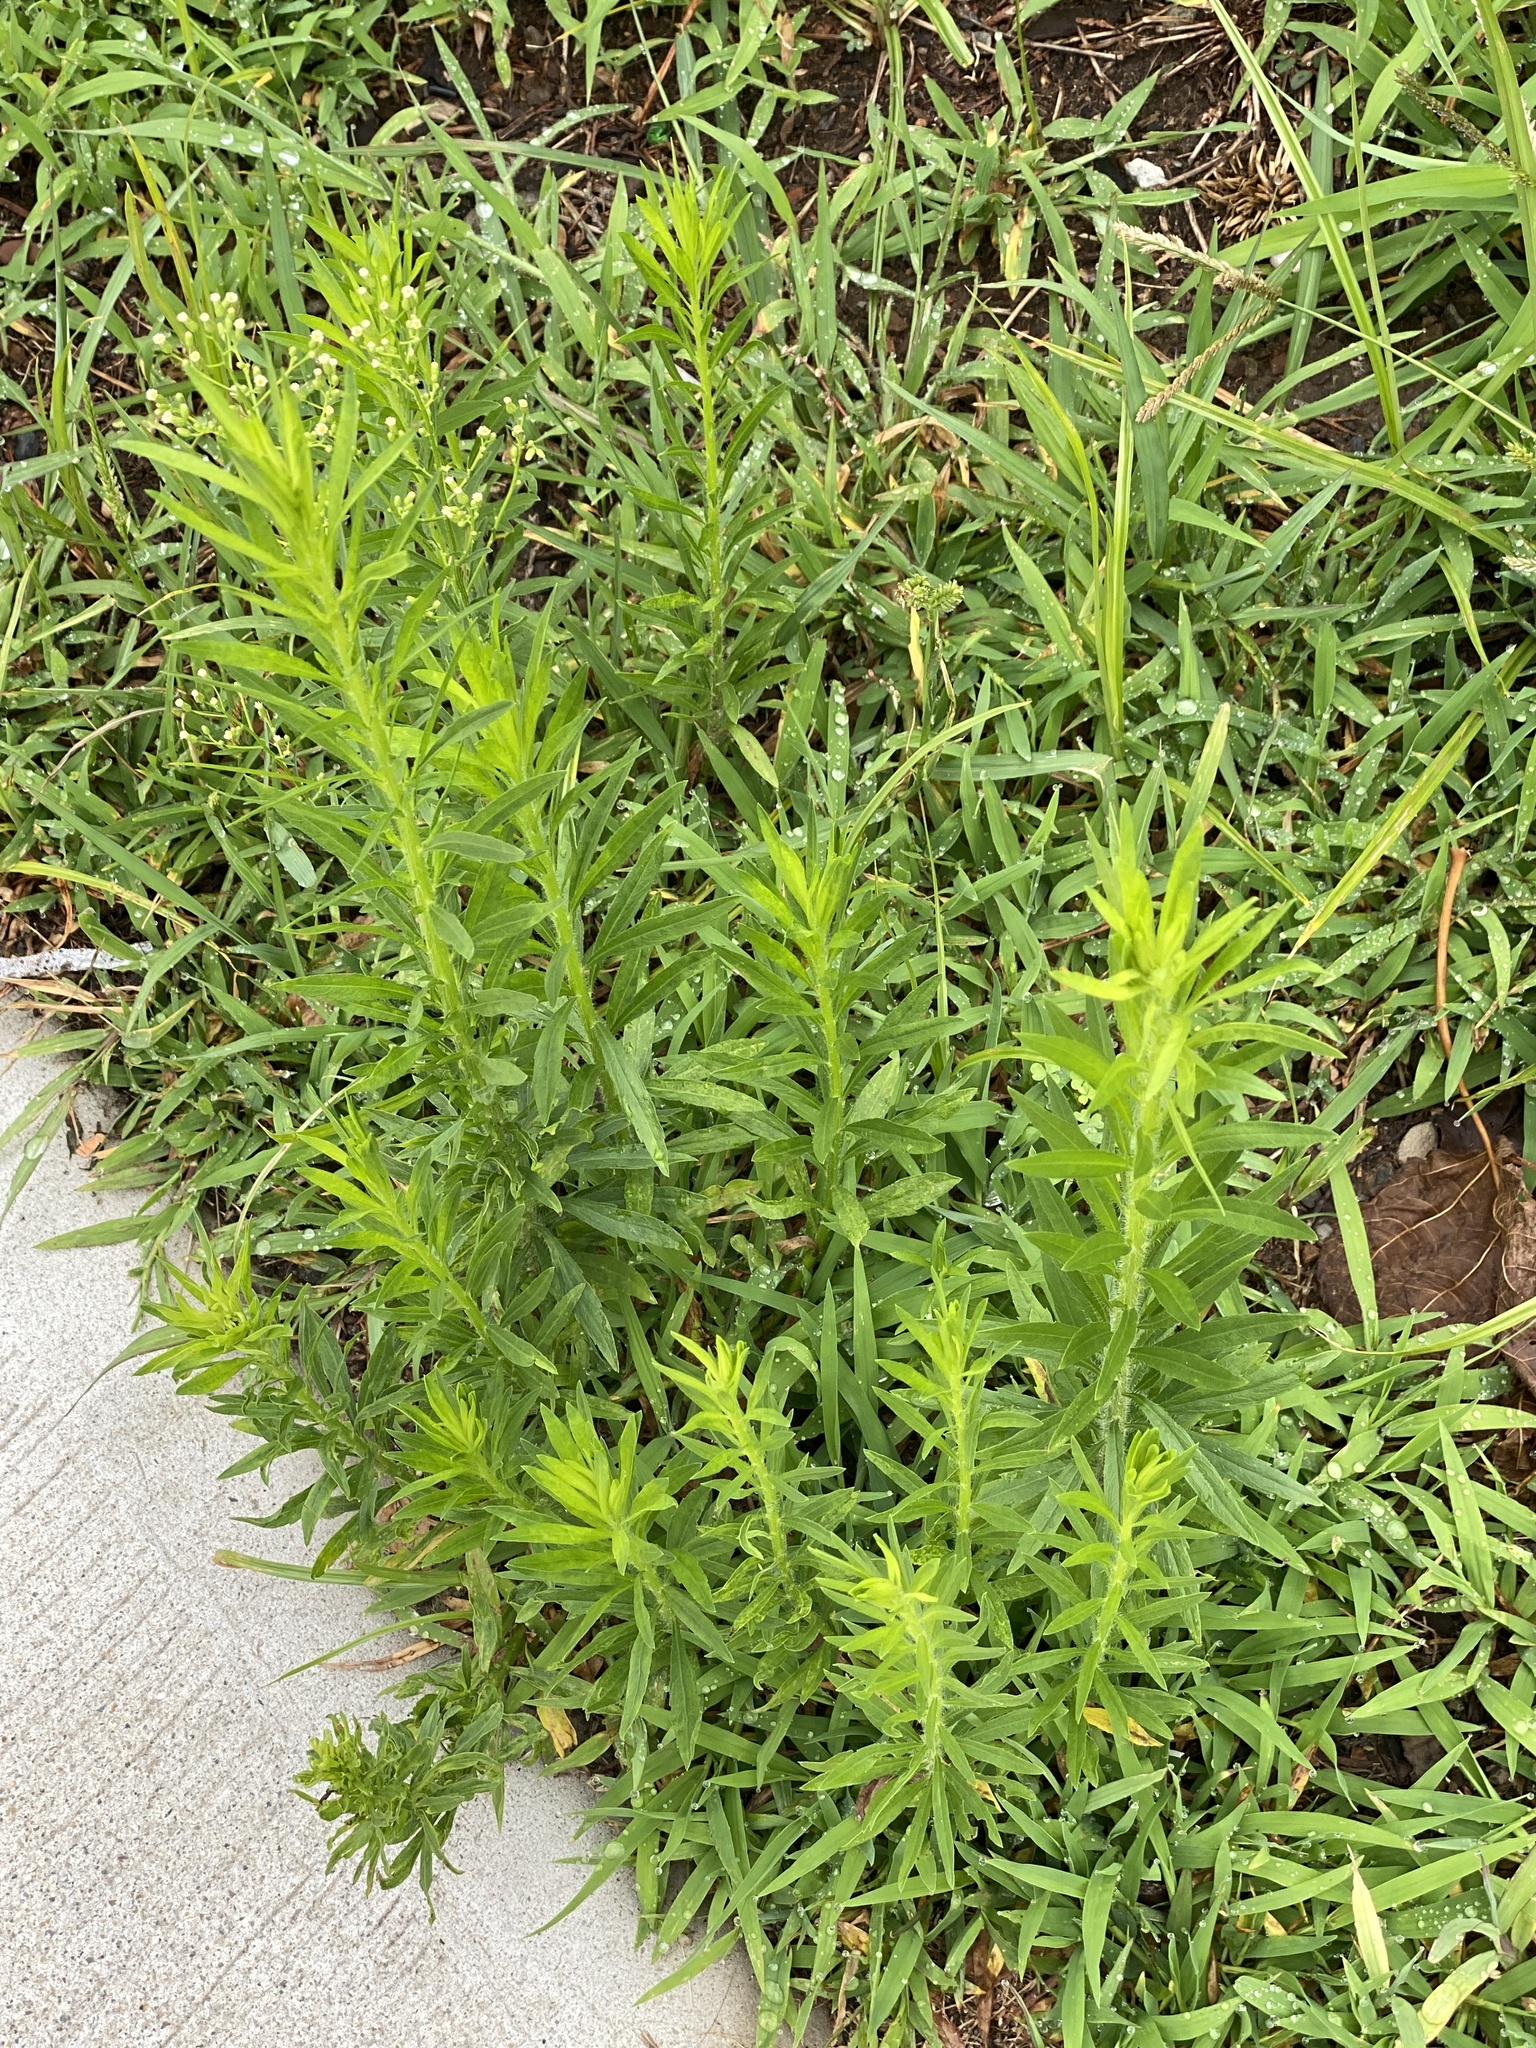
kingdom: Plantae
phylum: Tracheophyta
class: Magnoliopsida
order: Asterales
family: Asteraceae
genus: Erigeron
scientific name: Erigeron canadensis
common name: Canadian fleabane
